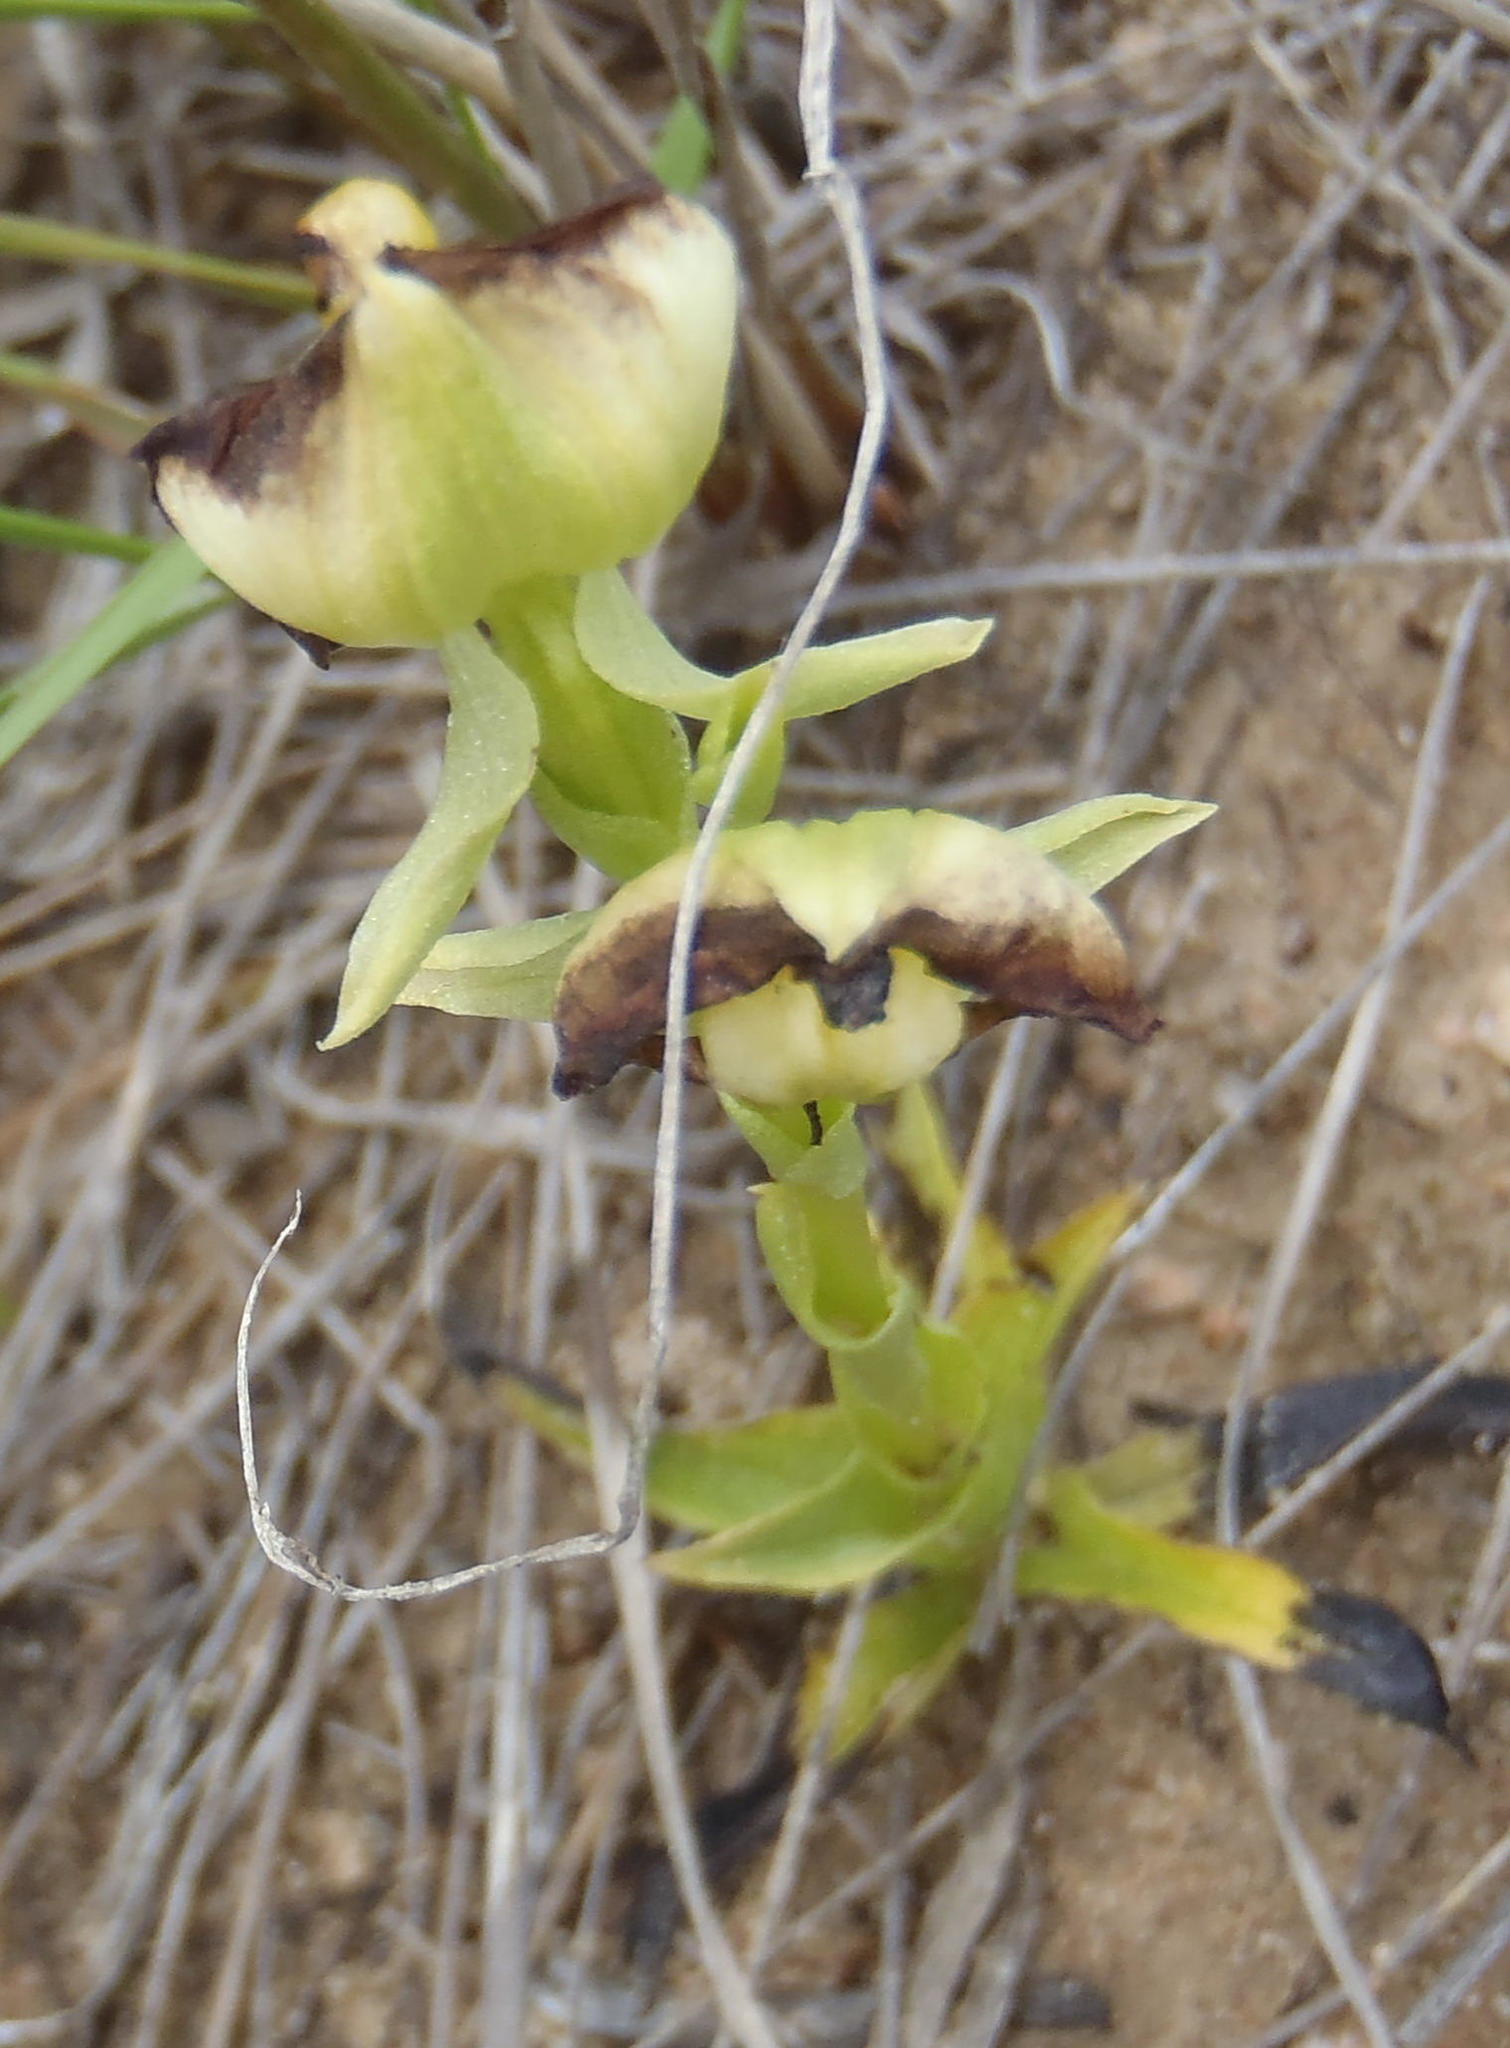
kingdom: Plantae
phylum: Tracheophyta
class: Liliopsida
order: Asparagales
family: Orchidaceae
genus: Pterygodium
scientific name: Pterygodium alatum
